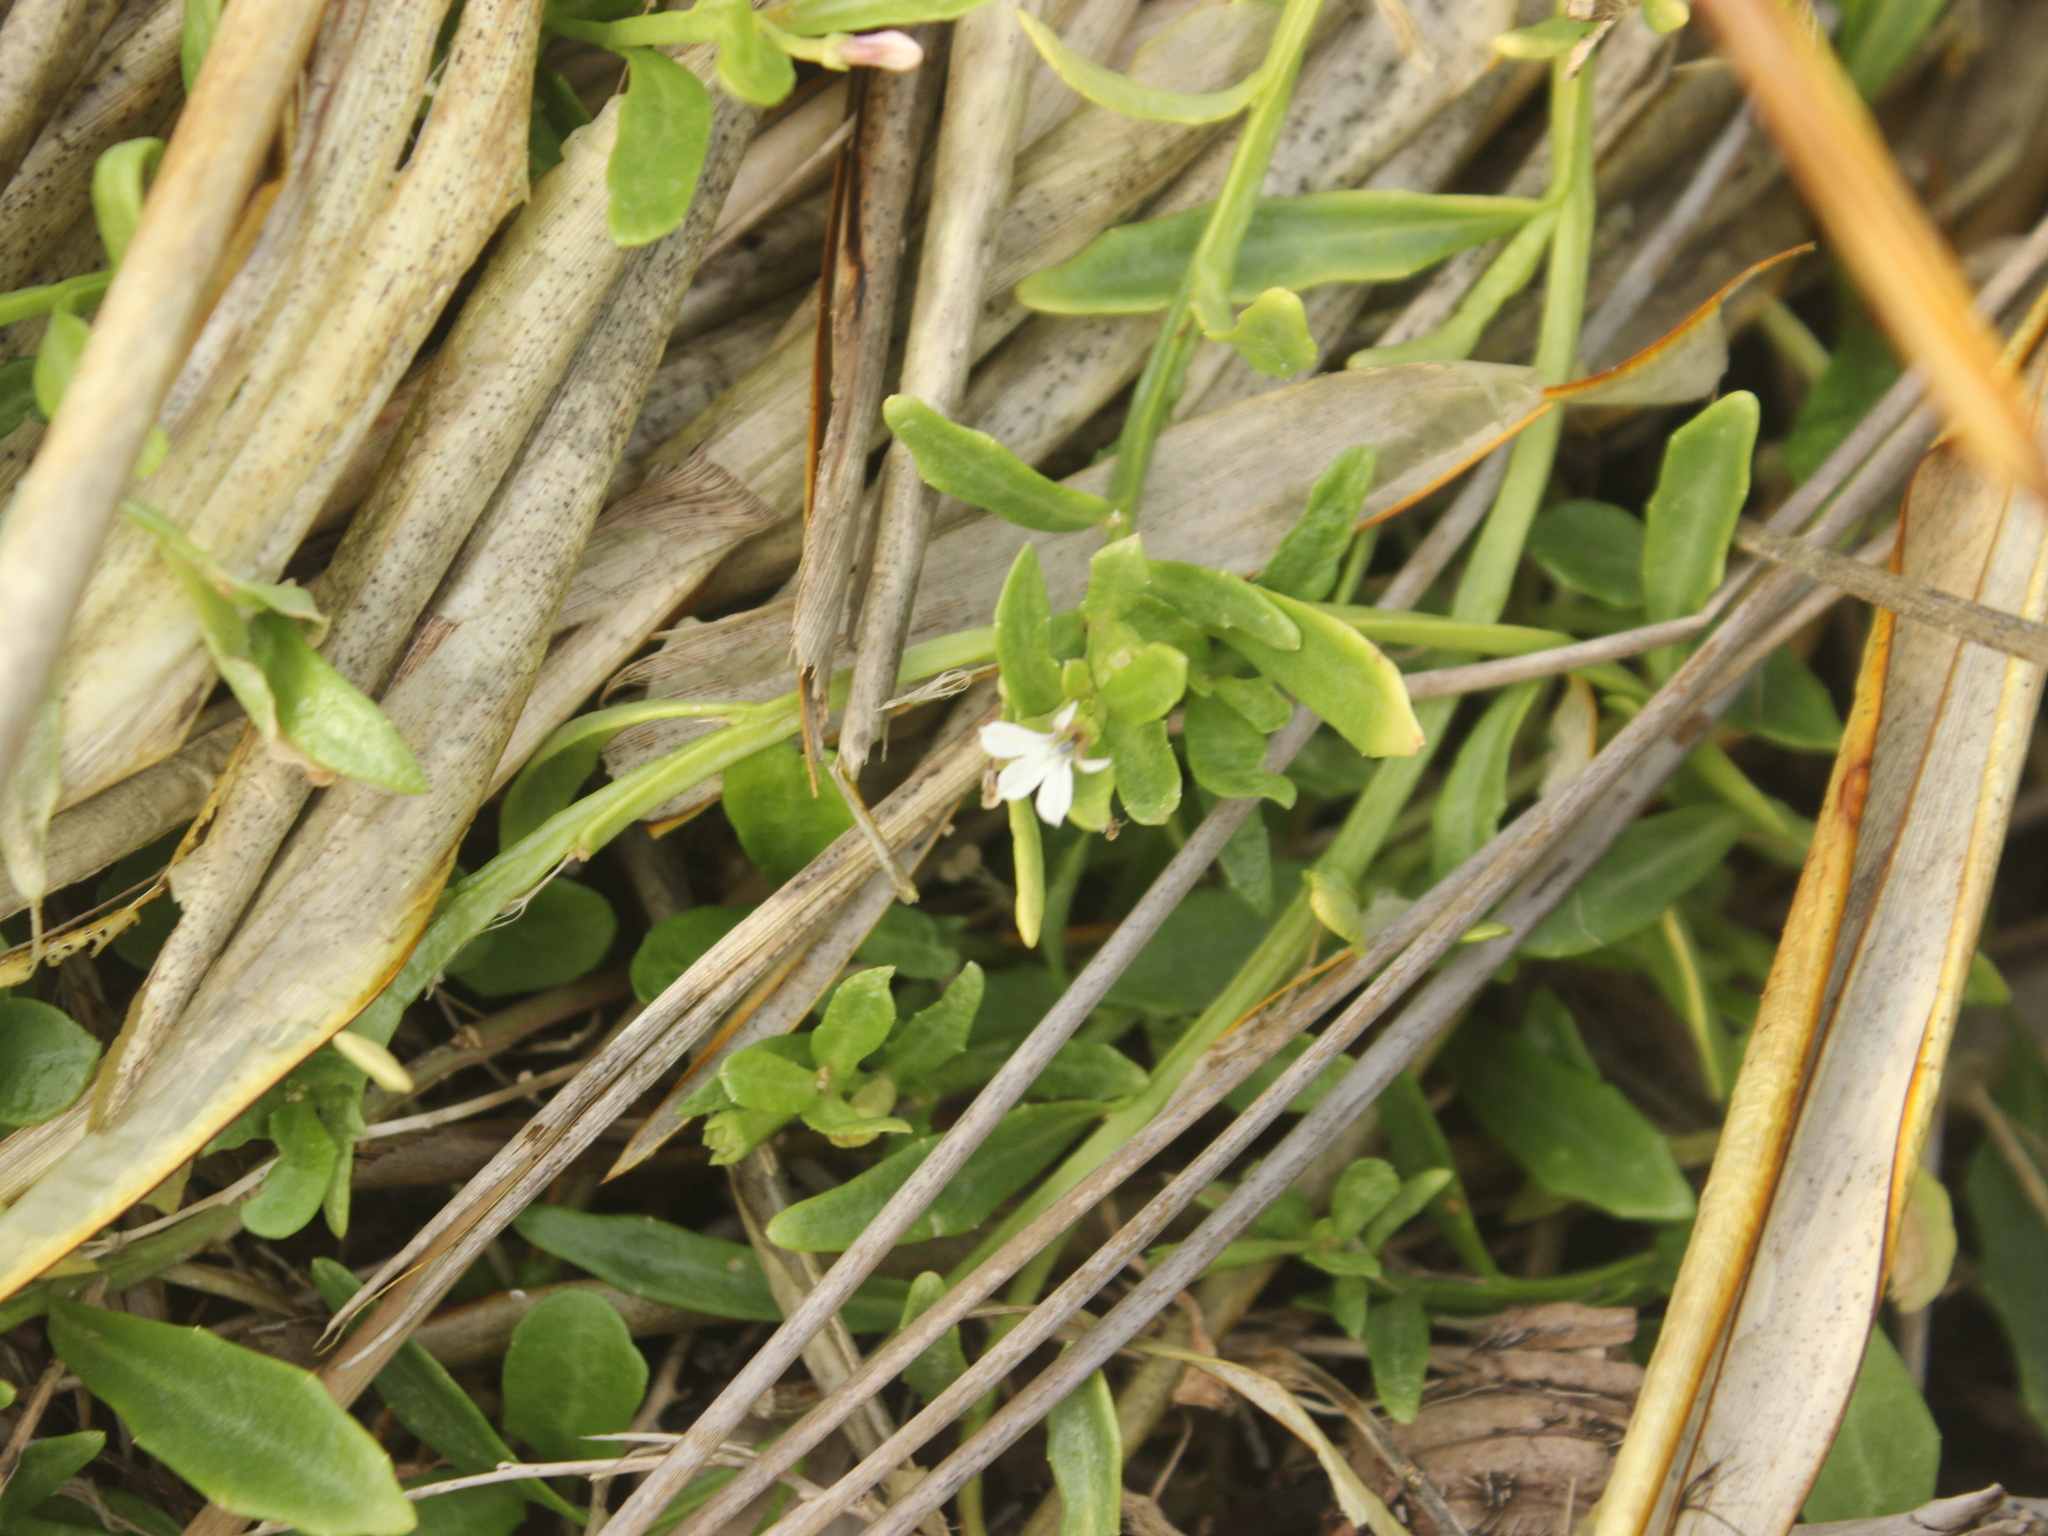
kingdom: Plantae
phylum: Tracheophyta
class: Magnoliopsida
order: Asterales
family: Campanulaceae
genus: Lobelia
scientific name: Lobelia anceps
